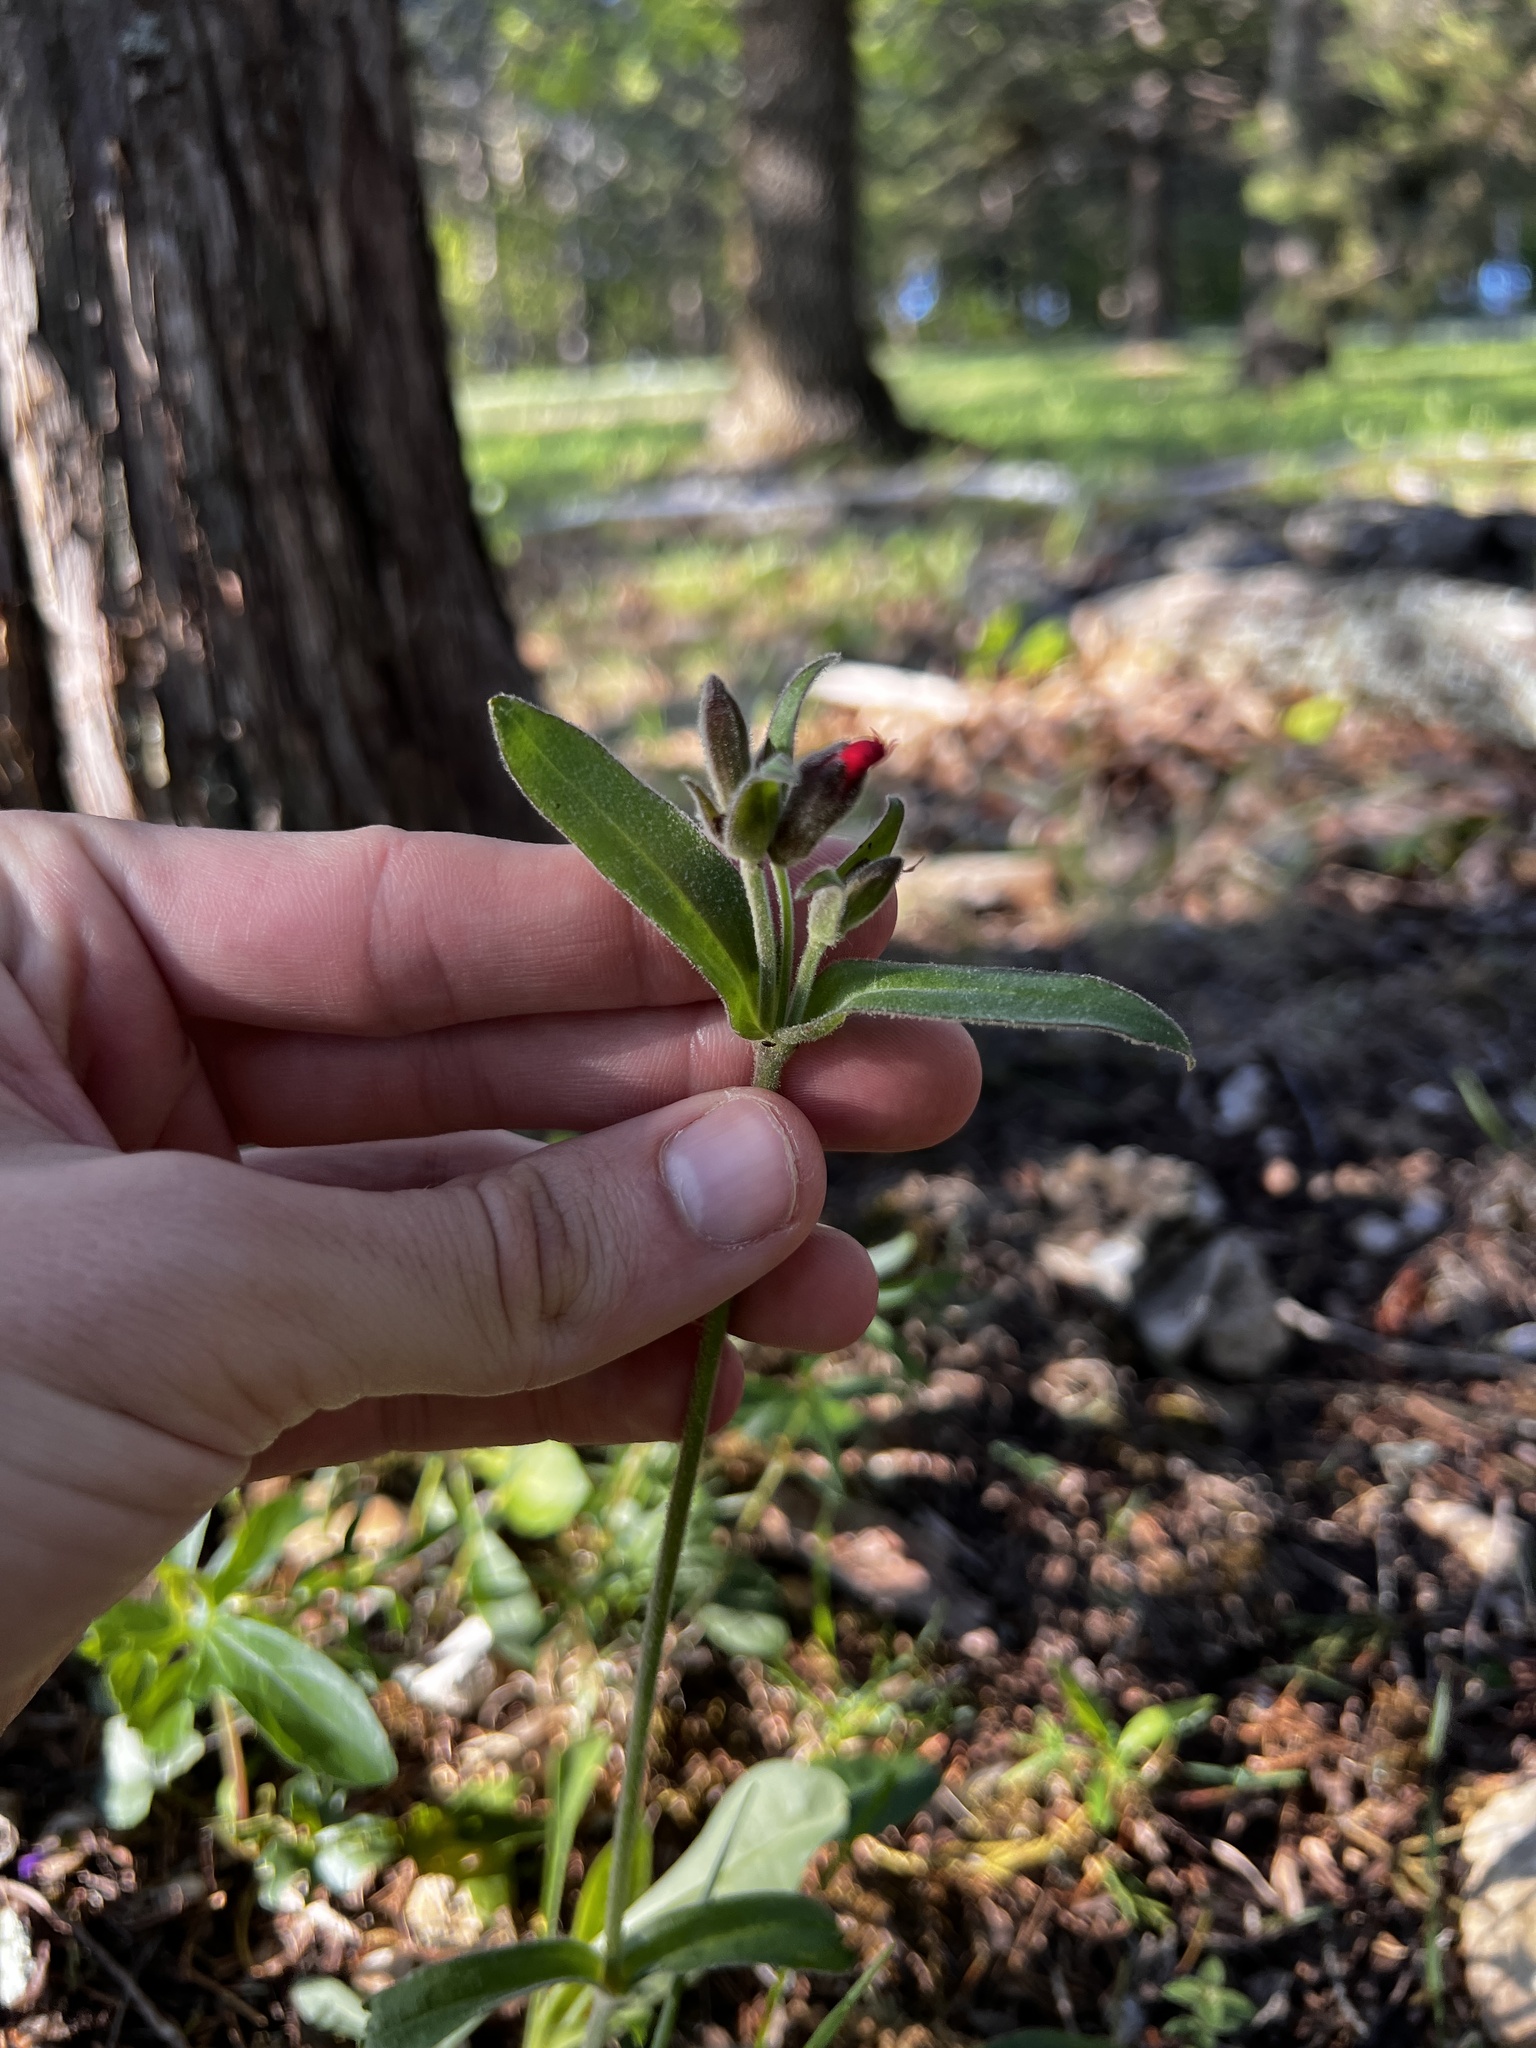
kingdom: Plantae
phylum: Tracheophyta
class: Magnoliopsida
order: Caryophyllales
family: Caryophyllaceae
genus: Silene
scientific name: Silene virginica
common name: Fire-pink
